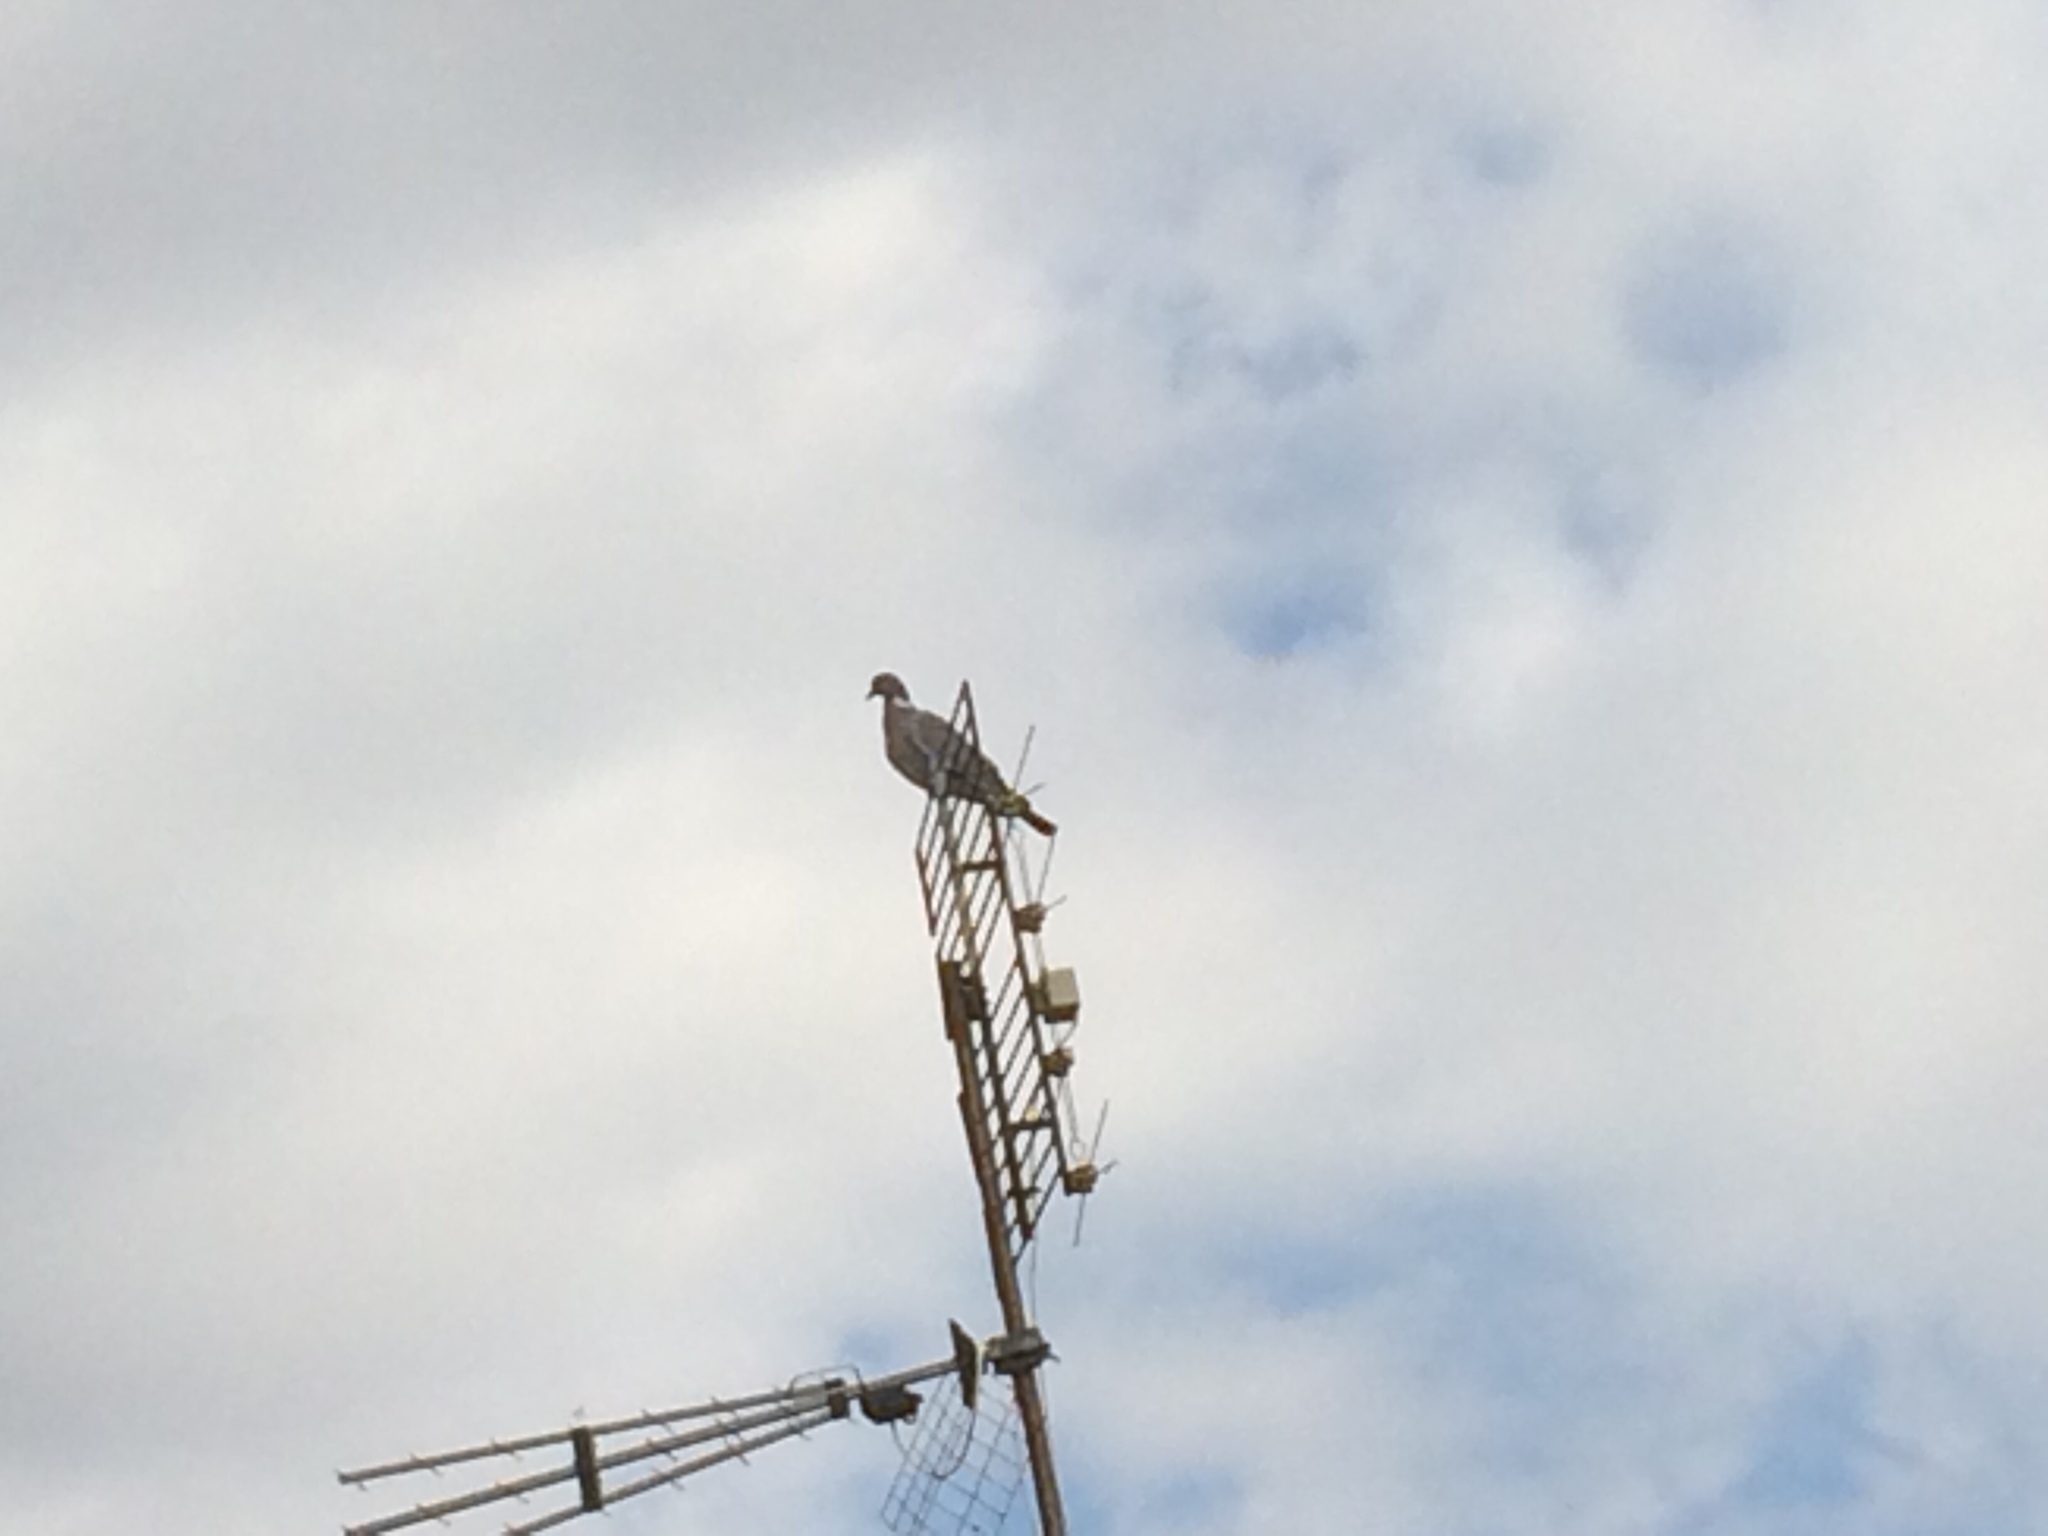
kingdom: Animalia
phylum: Chordata
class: Aves
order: Columbiformes
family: Columbidae
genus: Columba
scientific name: Columba palumbus
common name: Common wood pigeon
